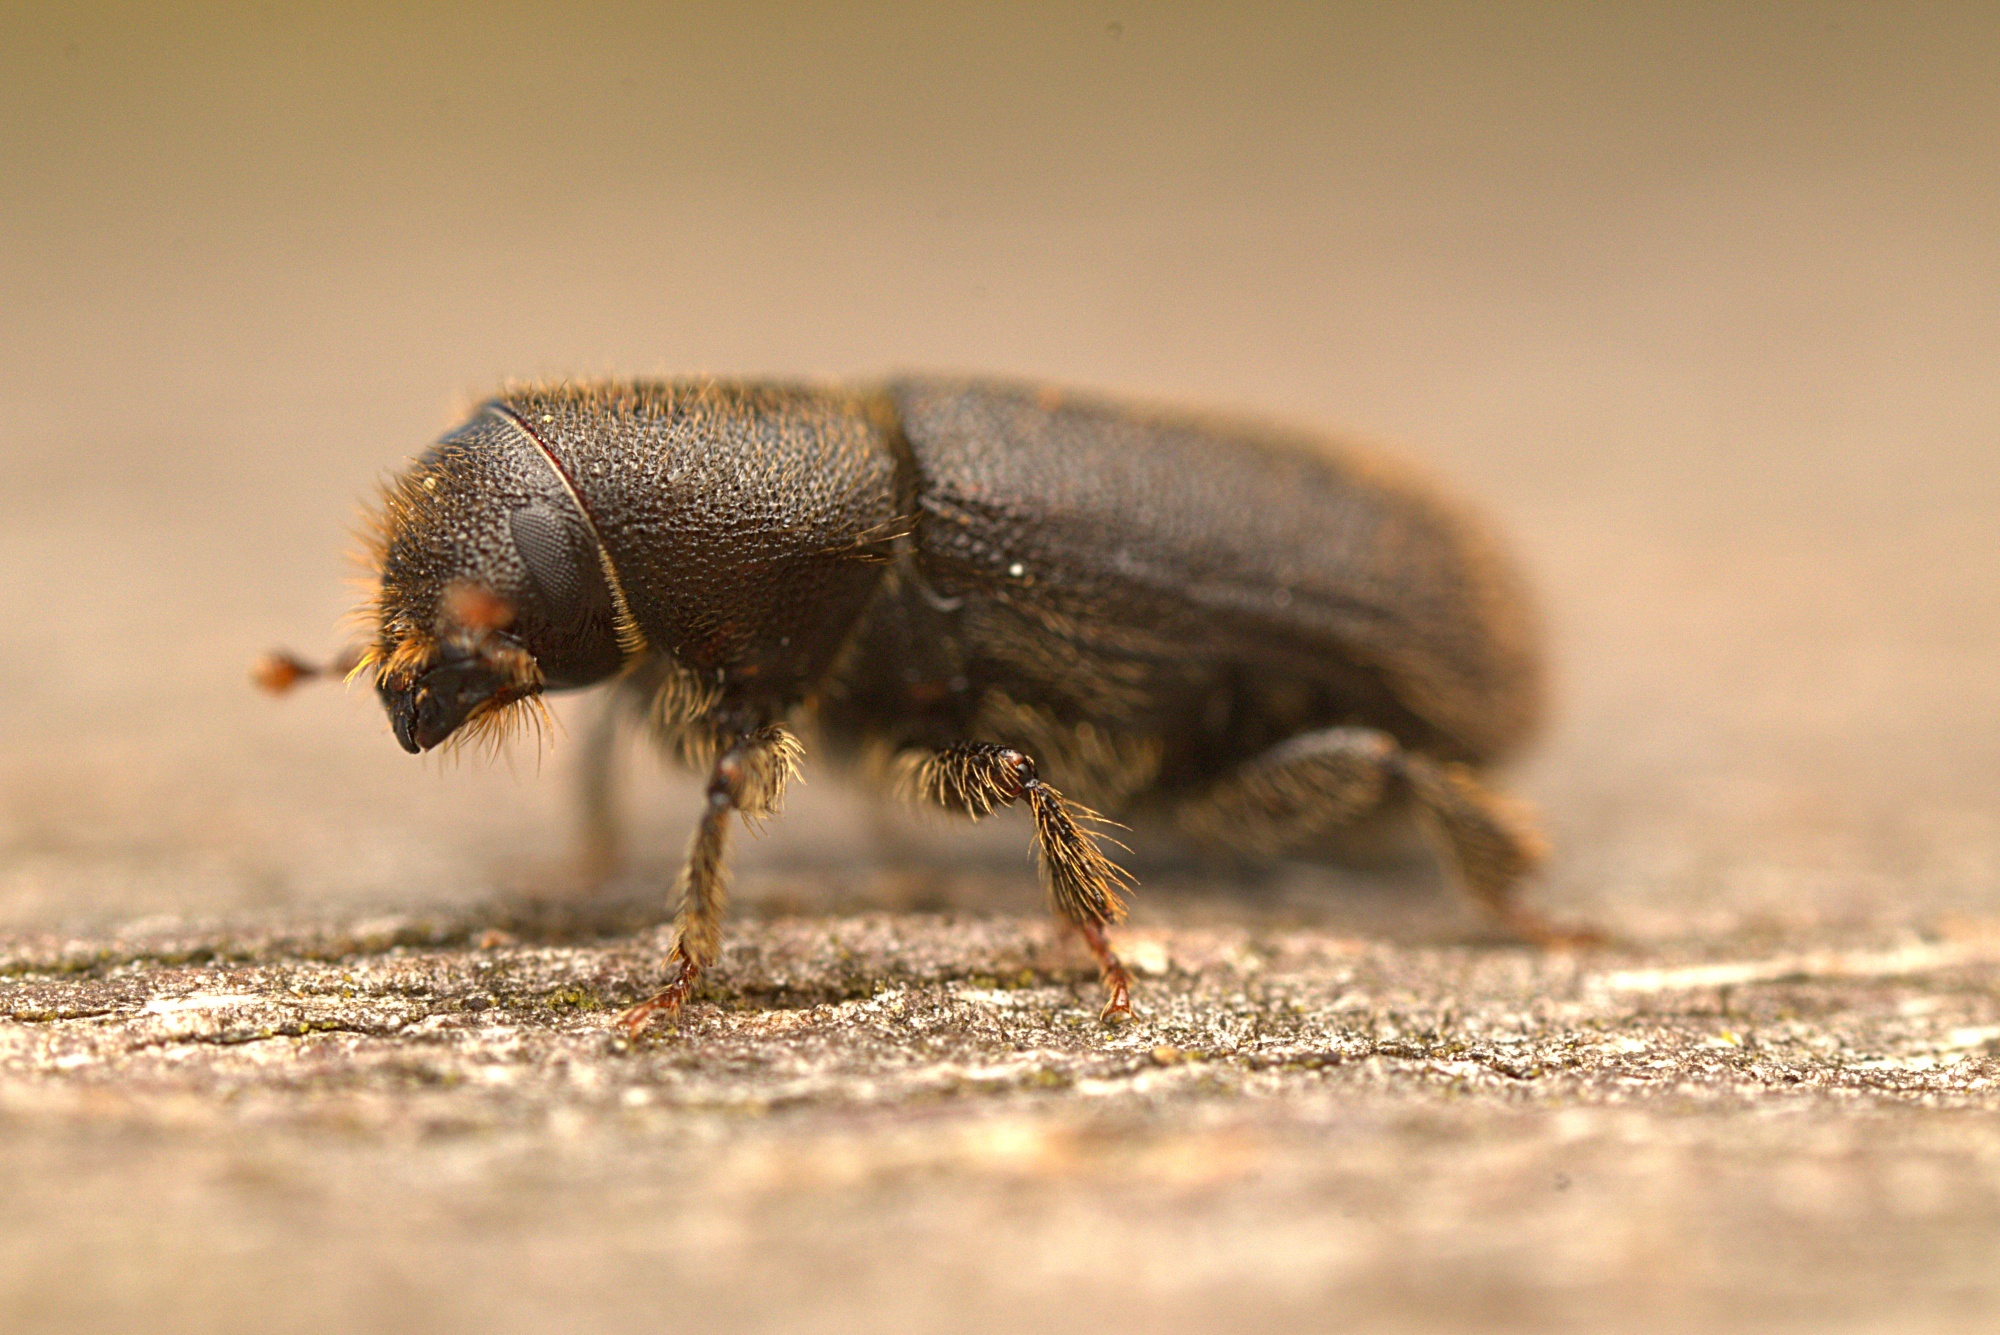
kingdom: Animalia
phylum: Arthropoda
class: Insecta
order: Coleoptera
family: Curculionidae
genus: Hylurgus
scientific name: Hylurgus ligniperda
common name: Goldenhaired bark beetle
